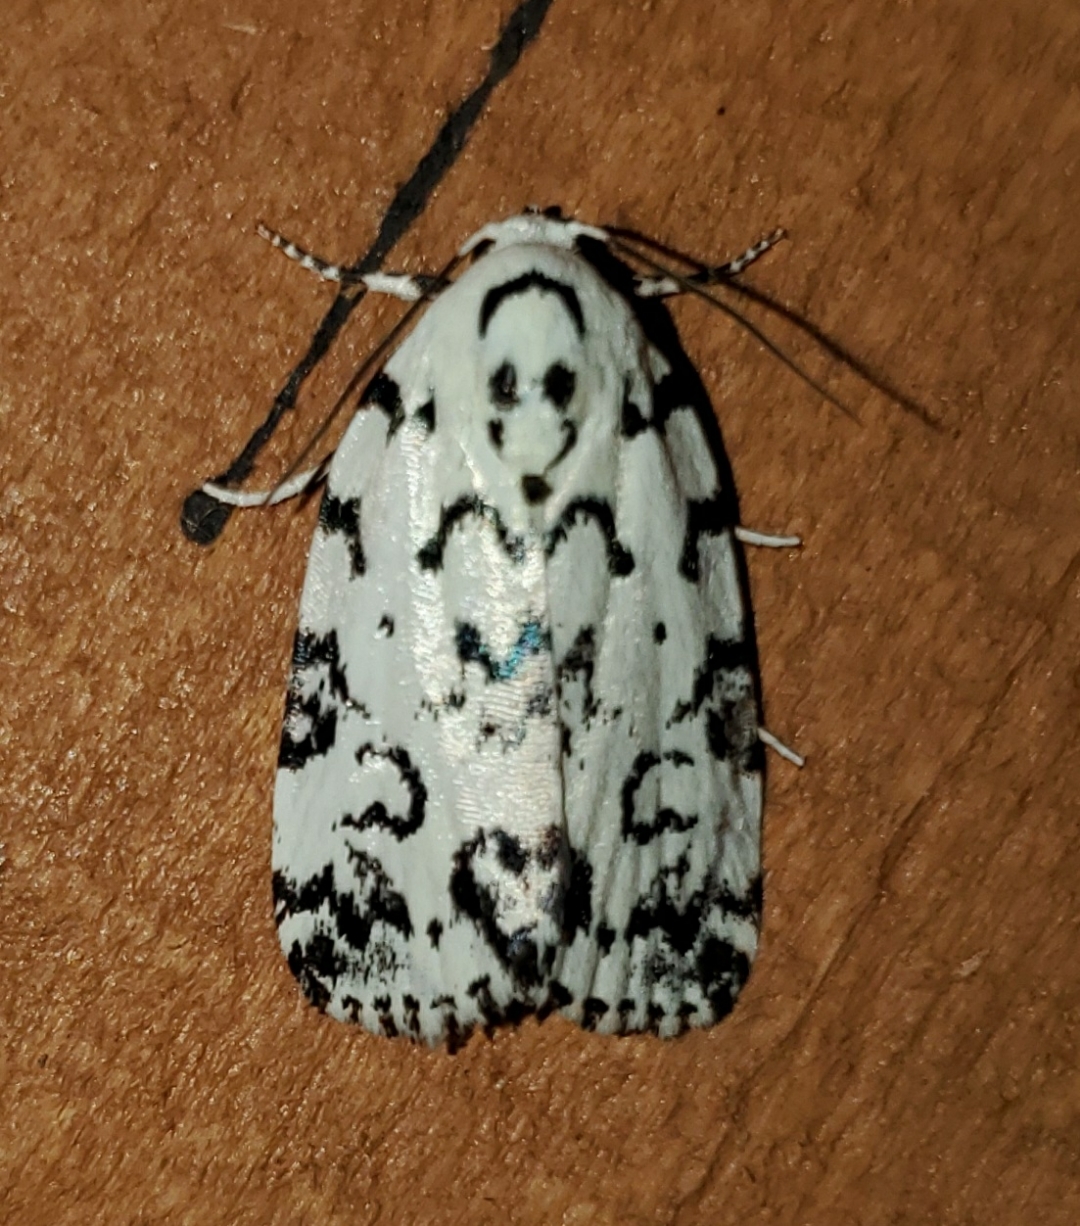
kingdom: Animalia
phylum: Arthropoda
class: Insecta
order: Lepidoptera
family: Noctuidae
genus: Polygrammate
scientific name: Polygrammate hebraeicum
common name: Hebrew moth
